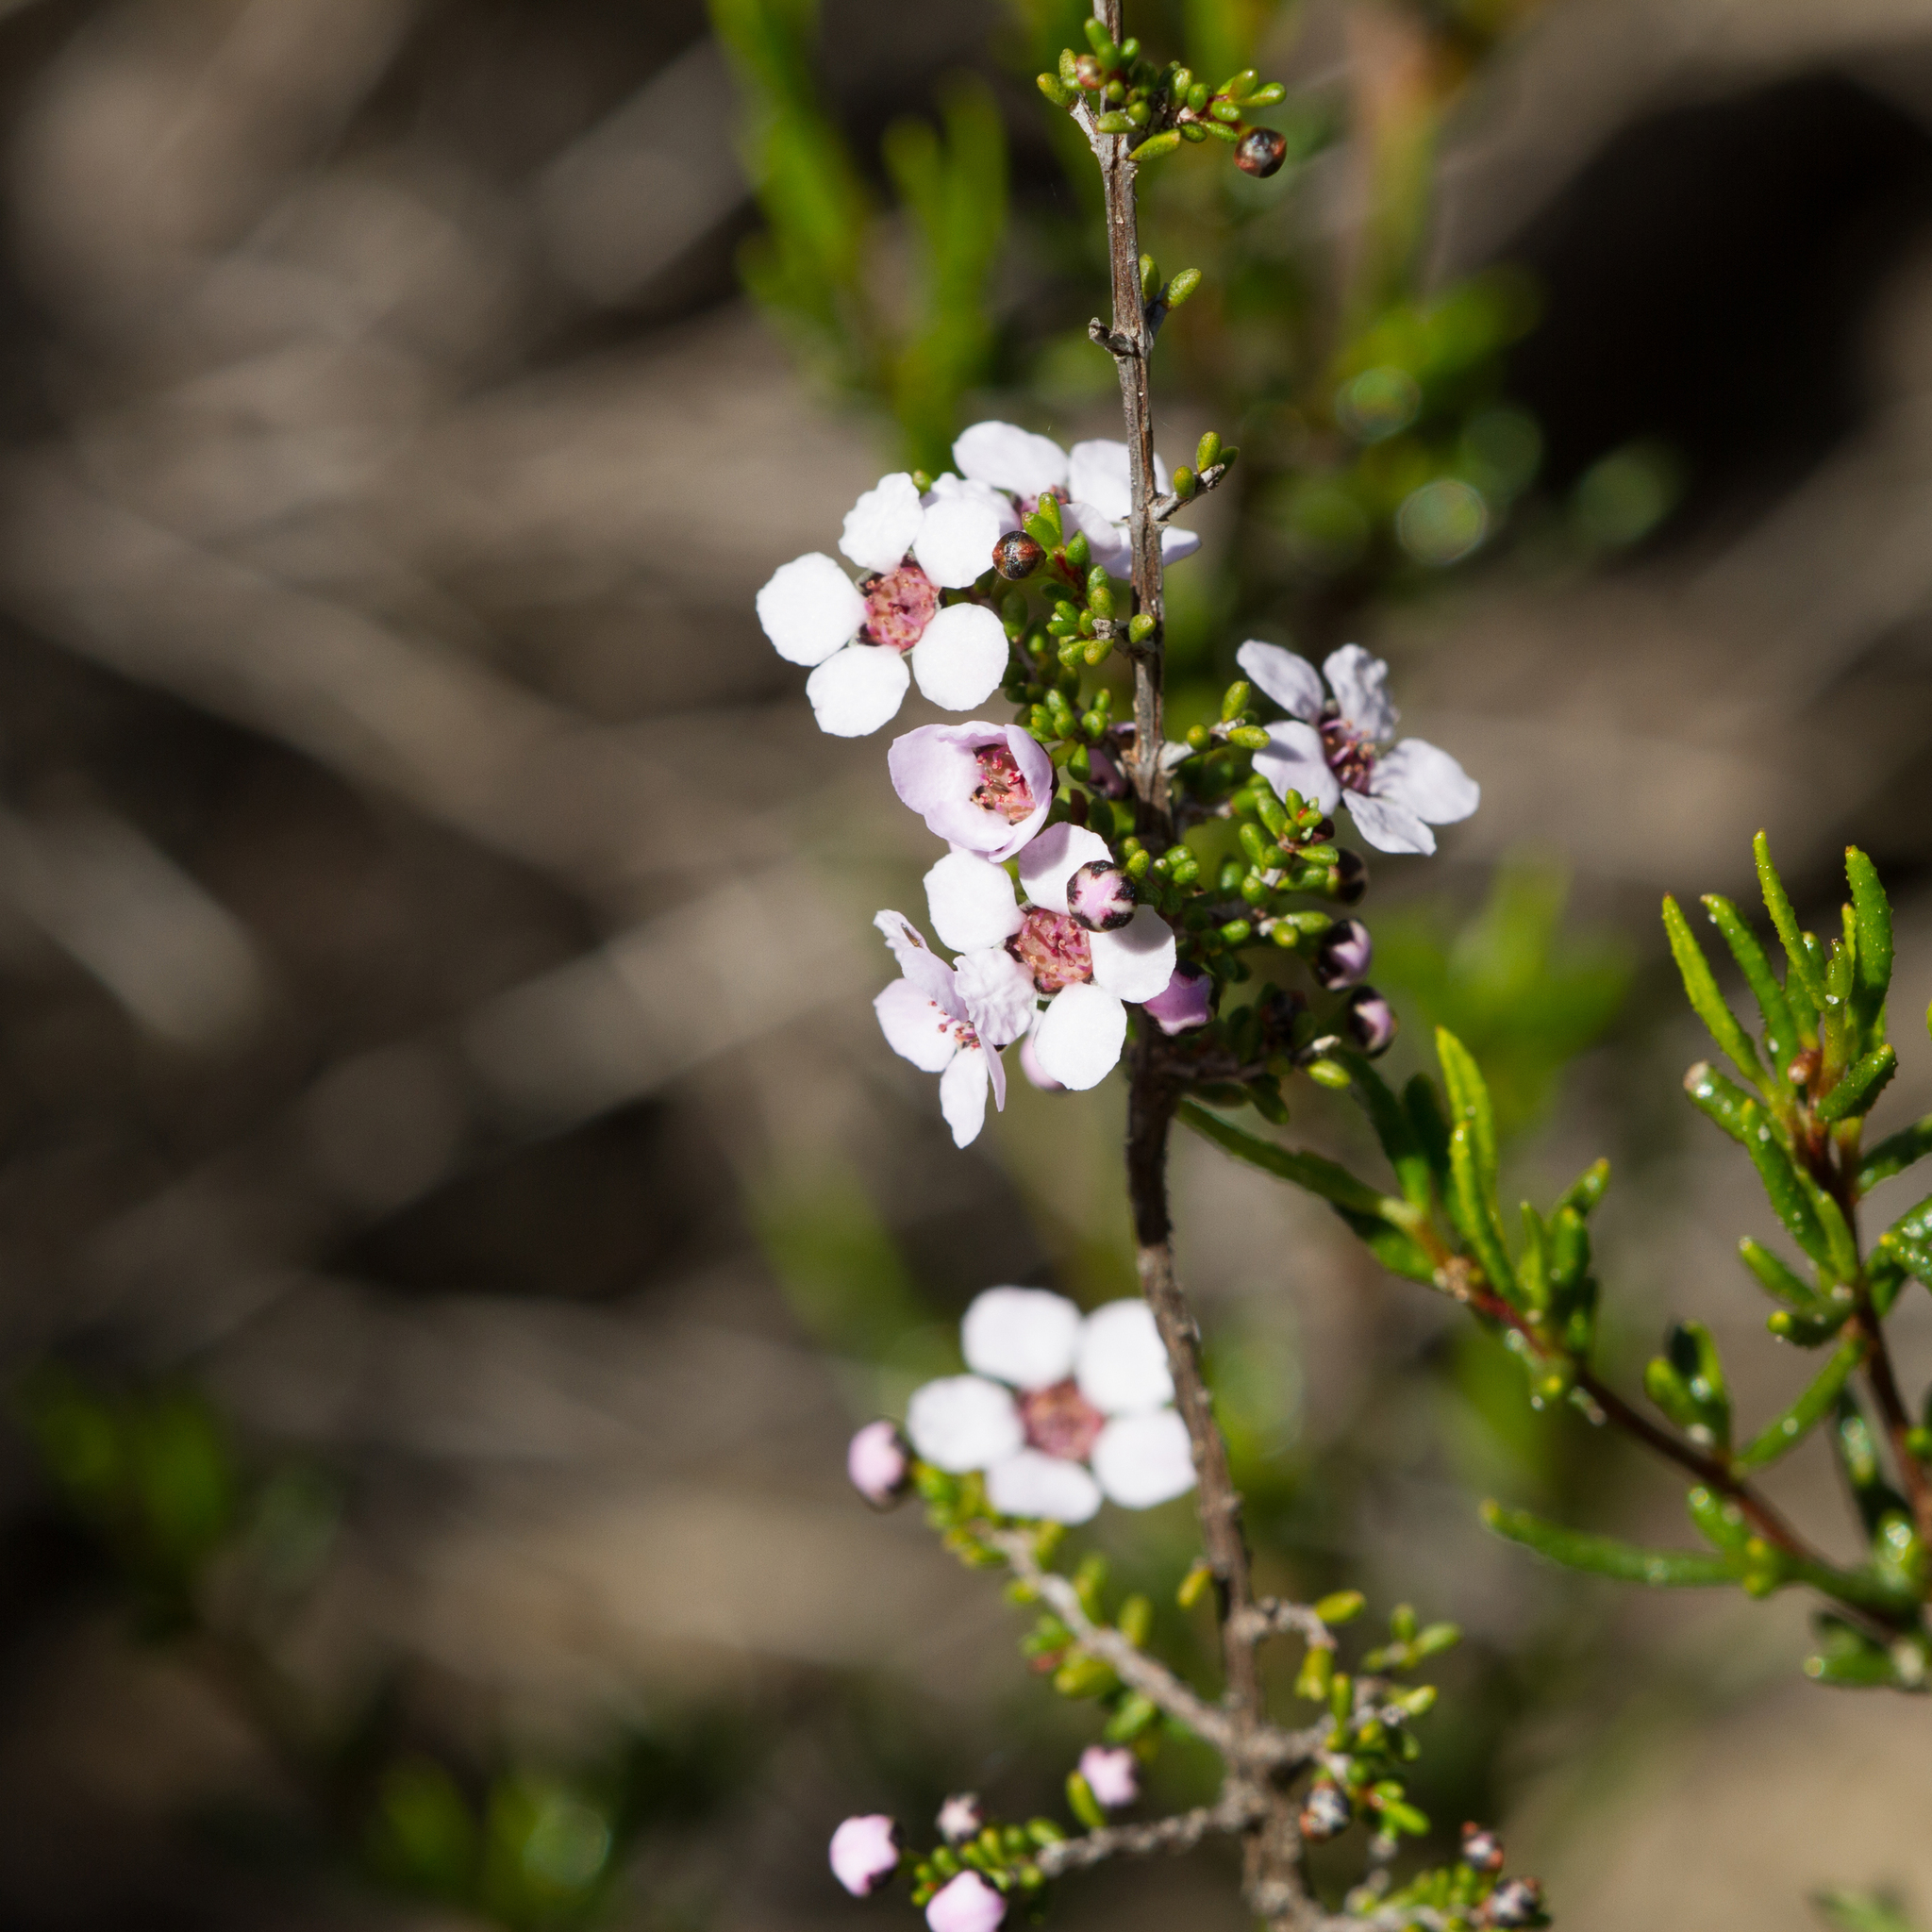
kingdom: Plantae
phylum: Tracheophyta
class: Magnoliopsida
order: Myrtales
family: Myrtaceae
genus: Rinzia
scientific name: Rinzia orientalis
